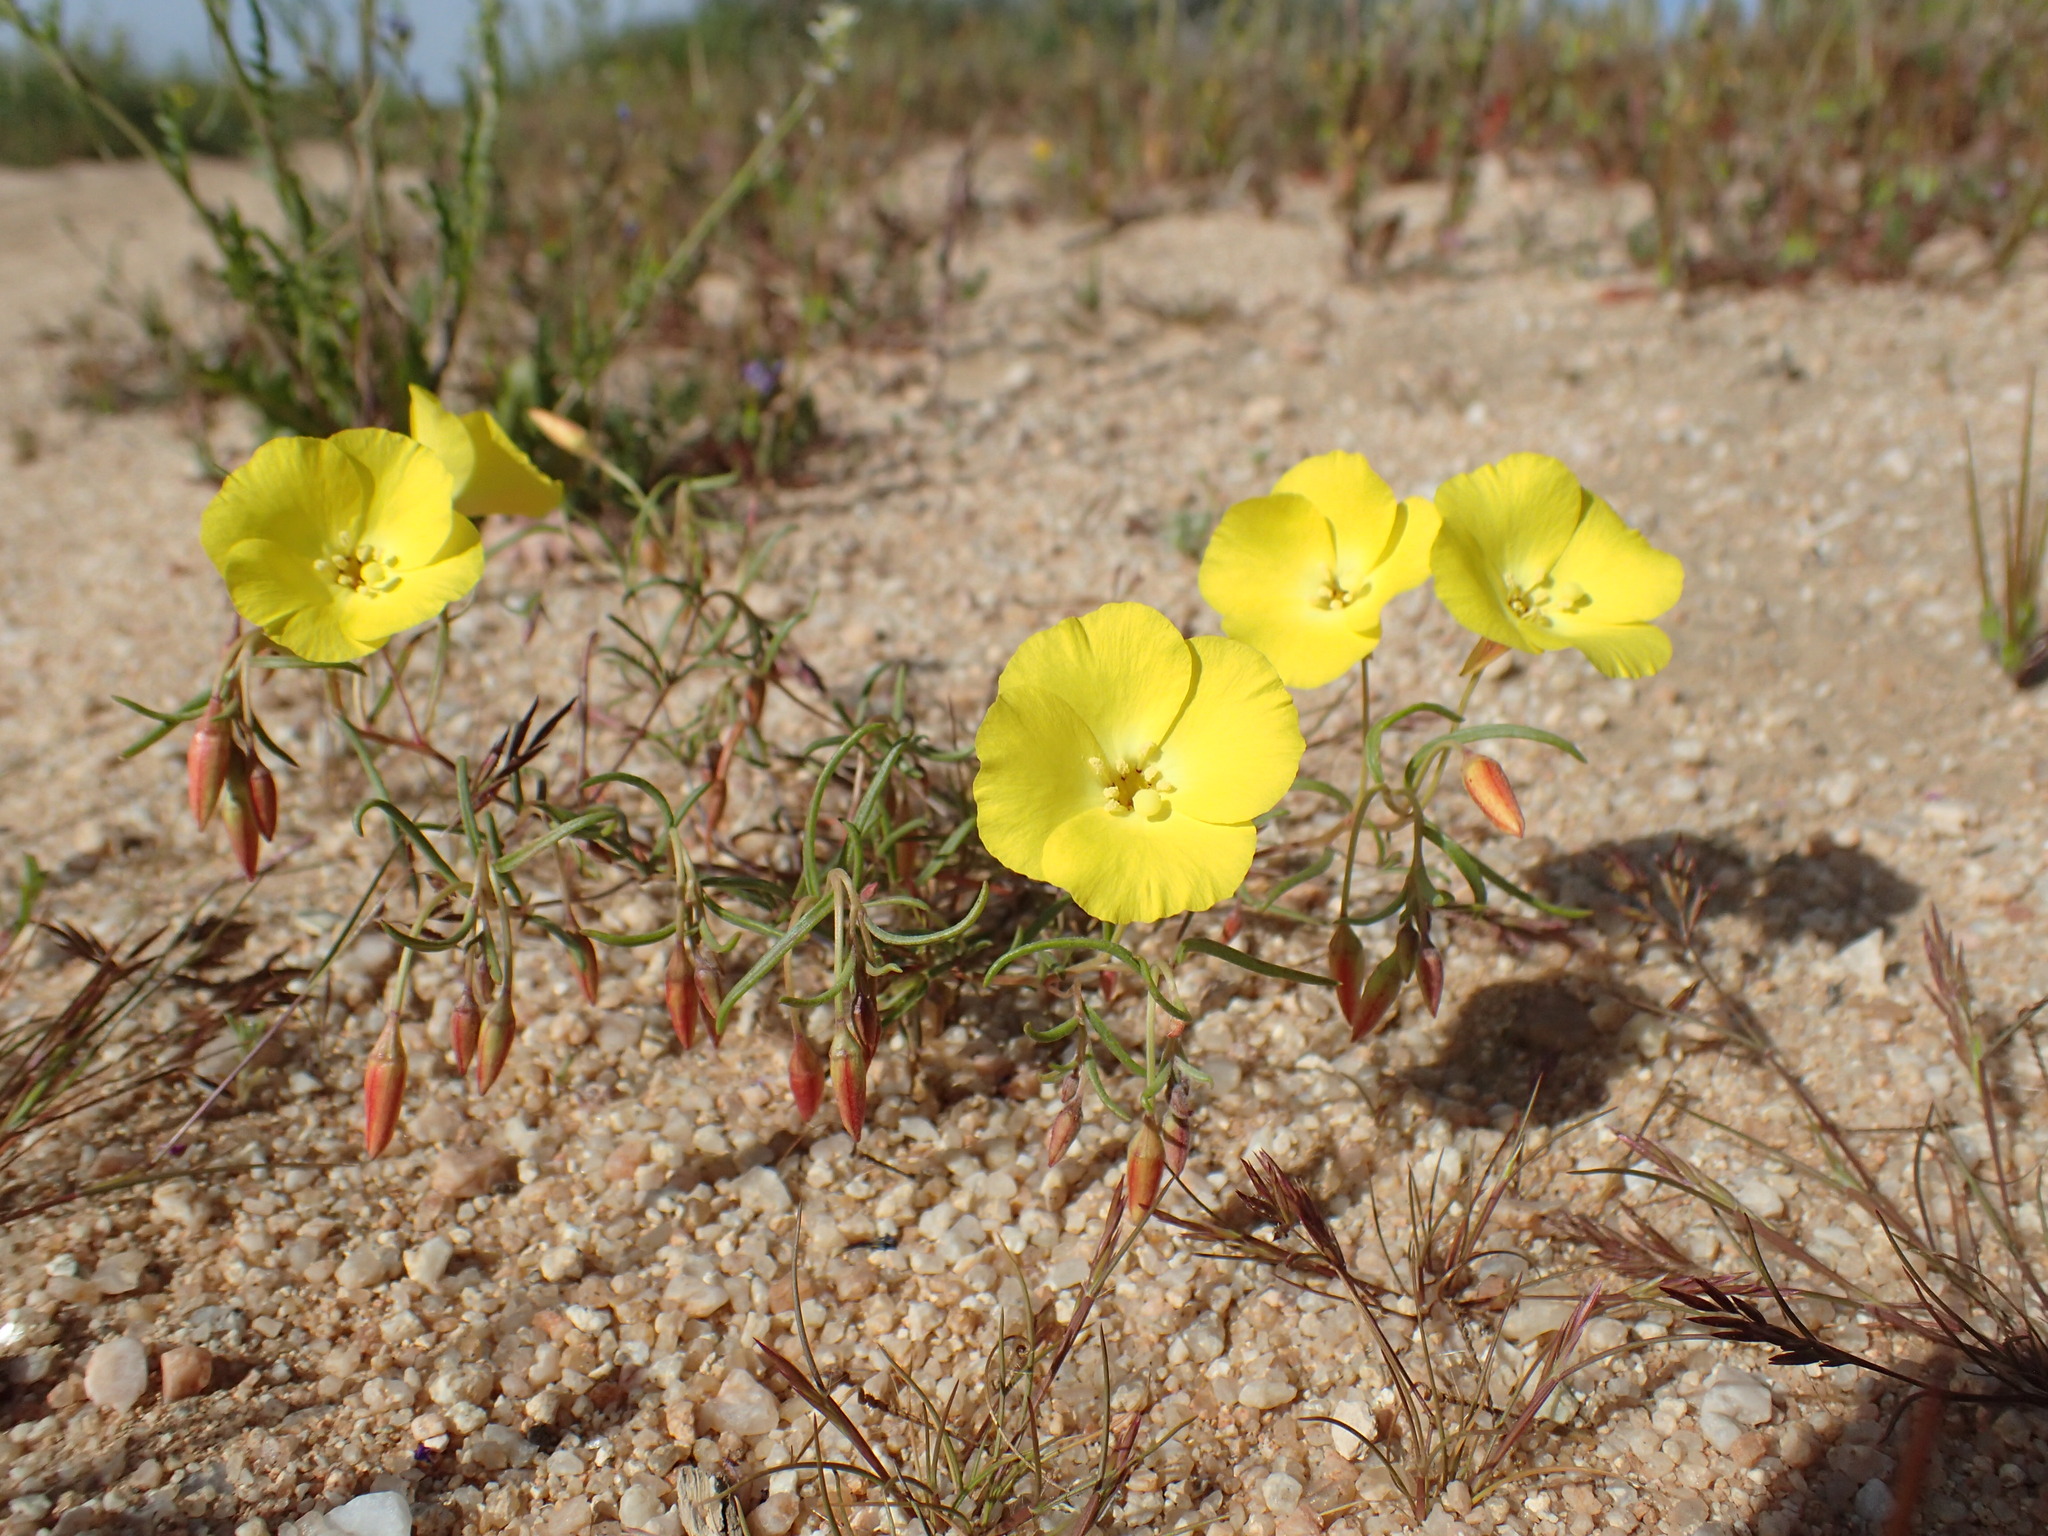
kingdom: Plantae
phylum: Tracheophyta
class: Magnoliopsida
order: Myrtales
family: Onagraceae
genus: Camissonia
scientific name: Camissonia campestris
